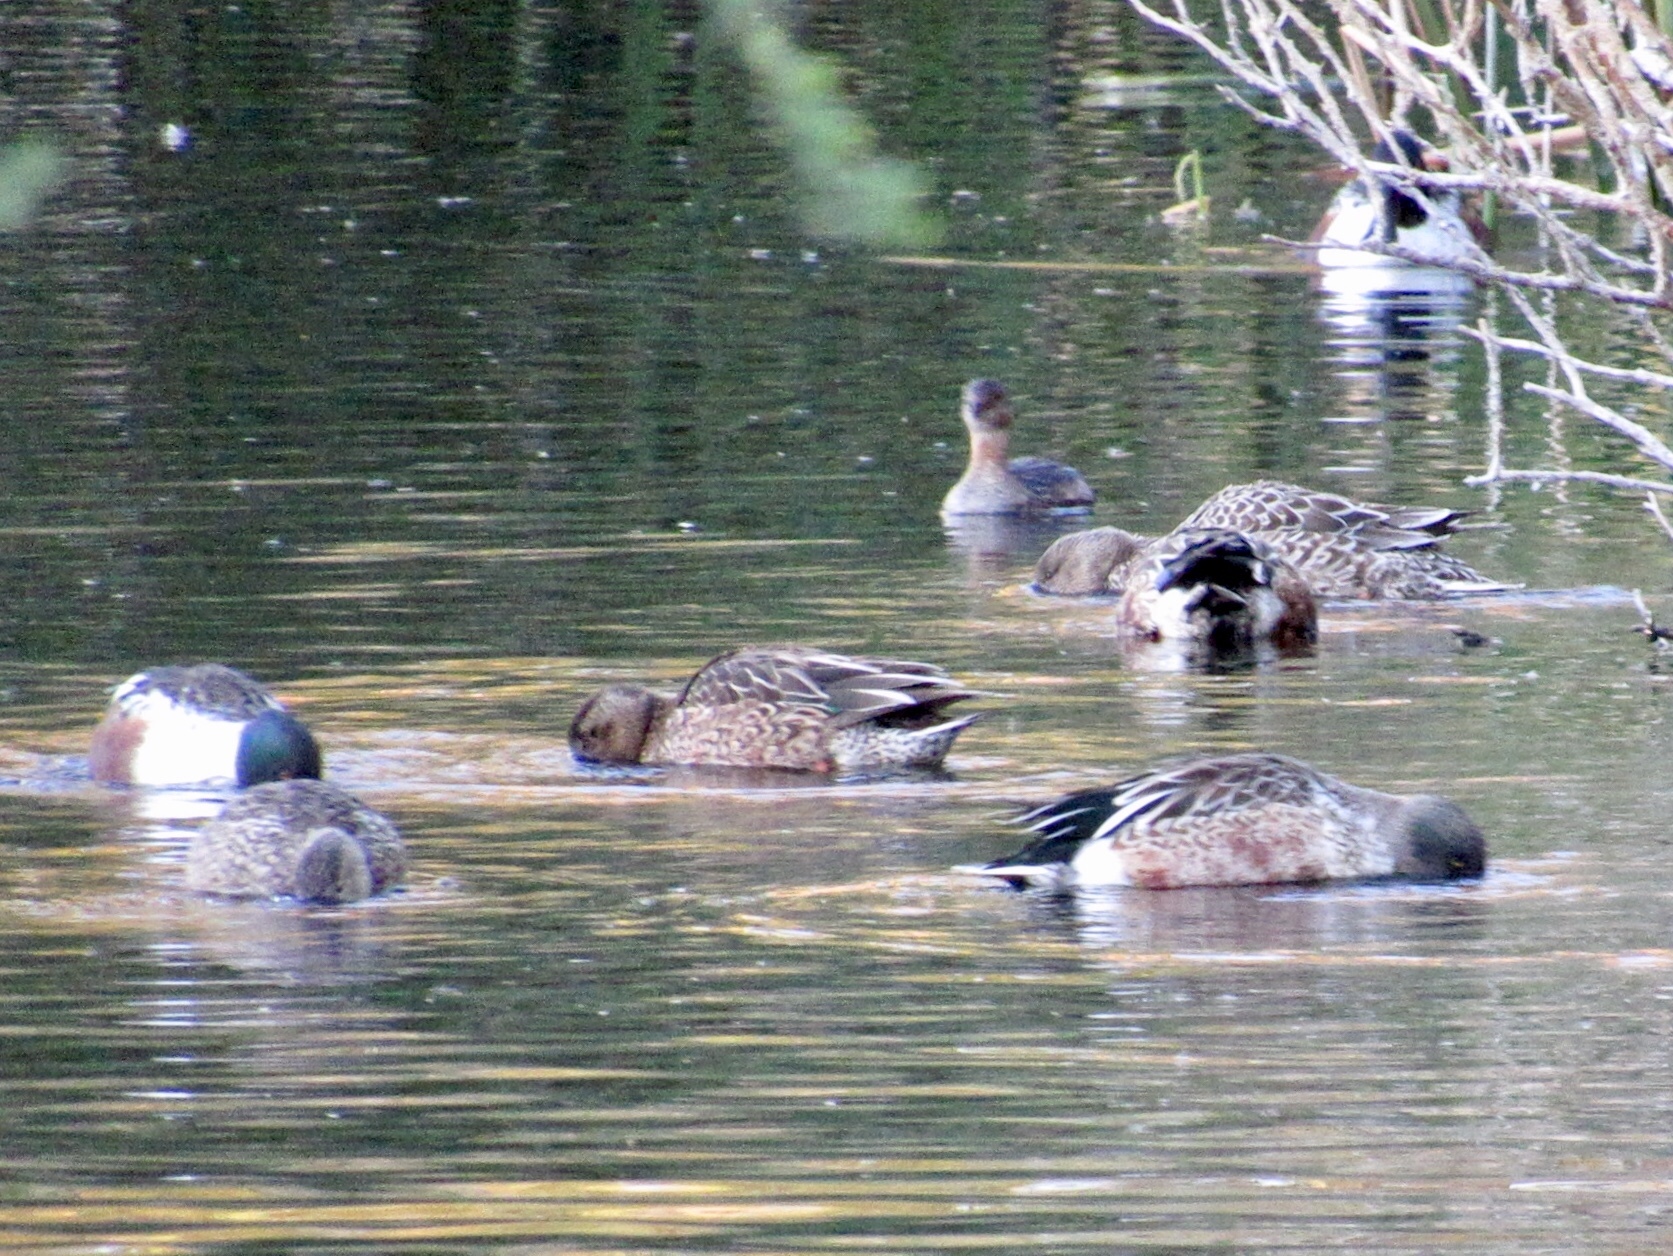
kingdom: Animalia
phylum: Chordata
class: Aves
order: Anseriformes
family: Anatidae
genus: Spatula
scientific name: Spatula clypeata
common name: Northern shoveler
